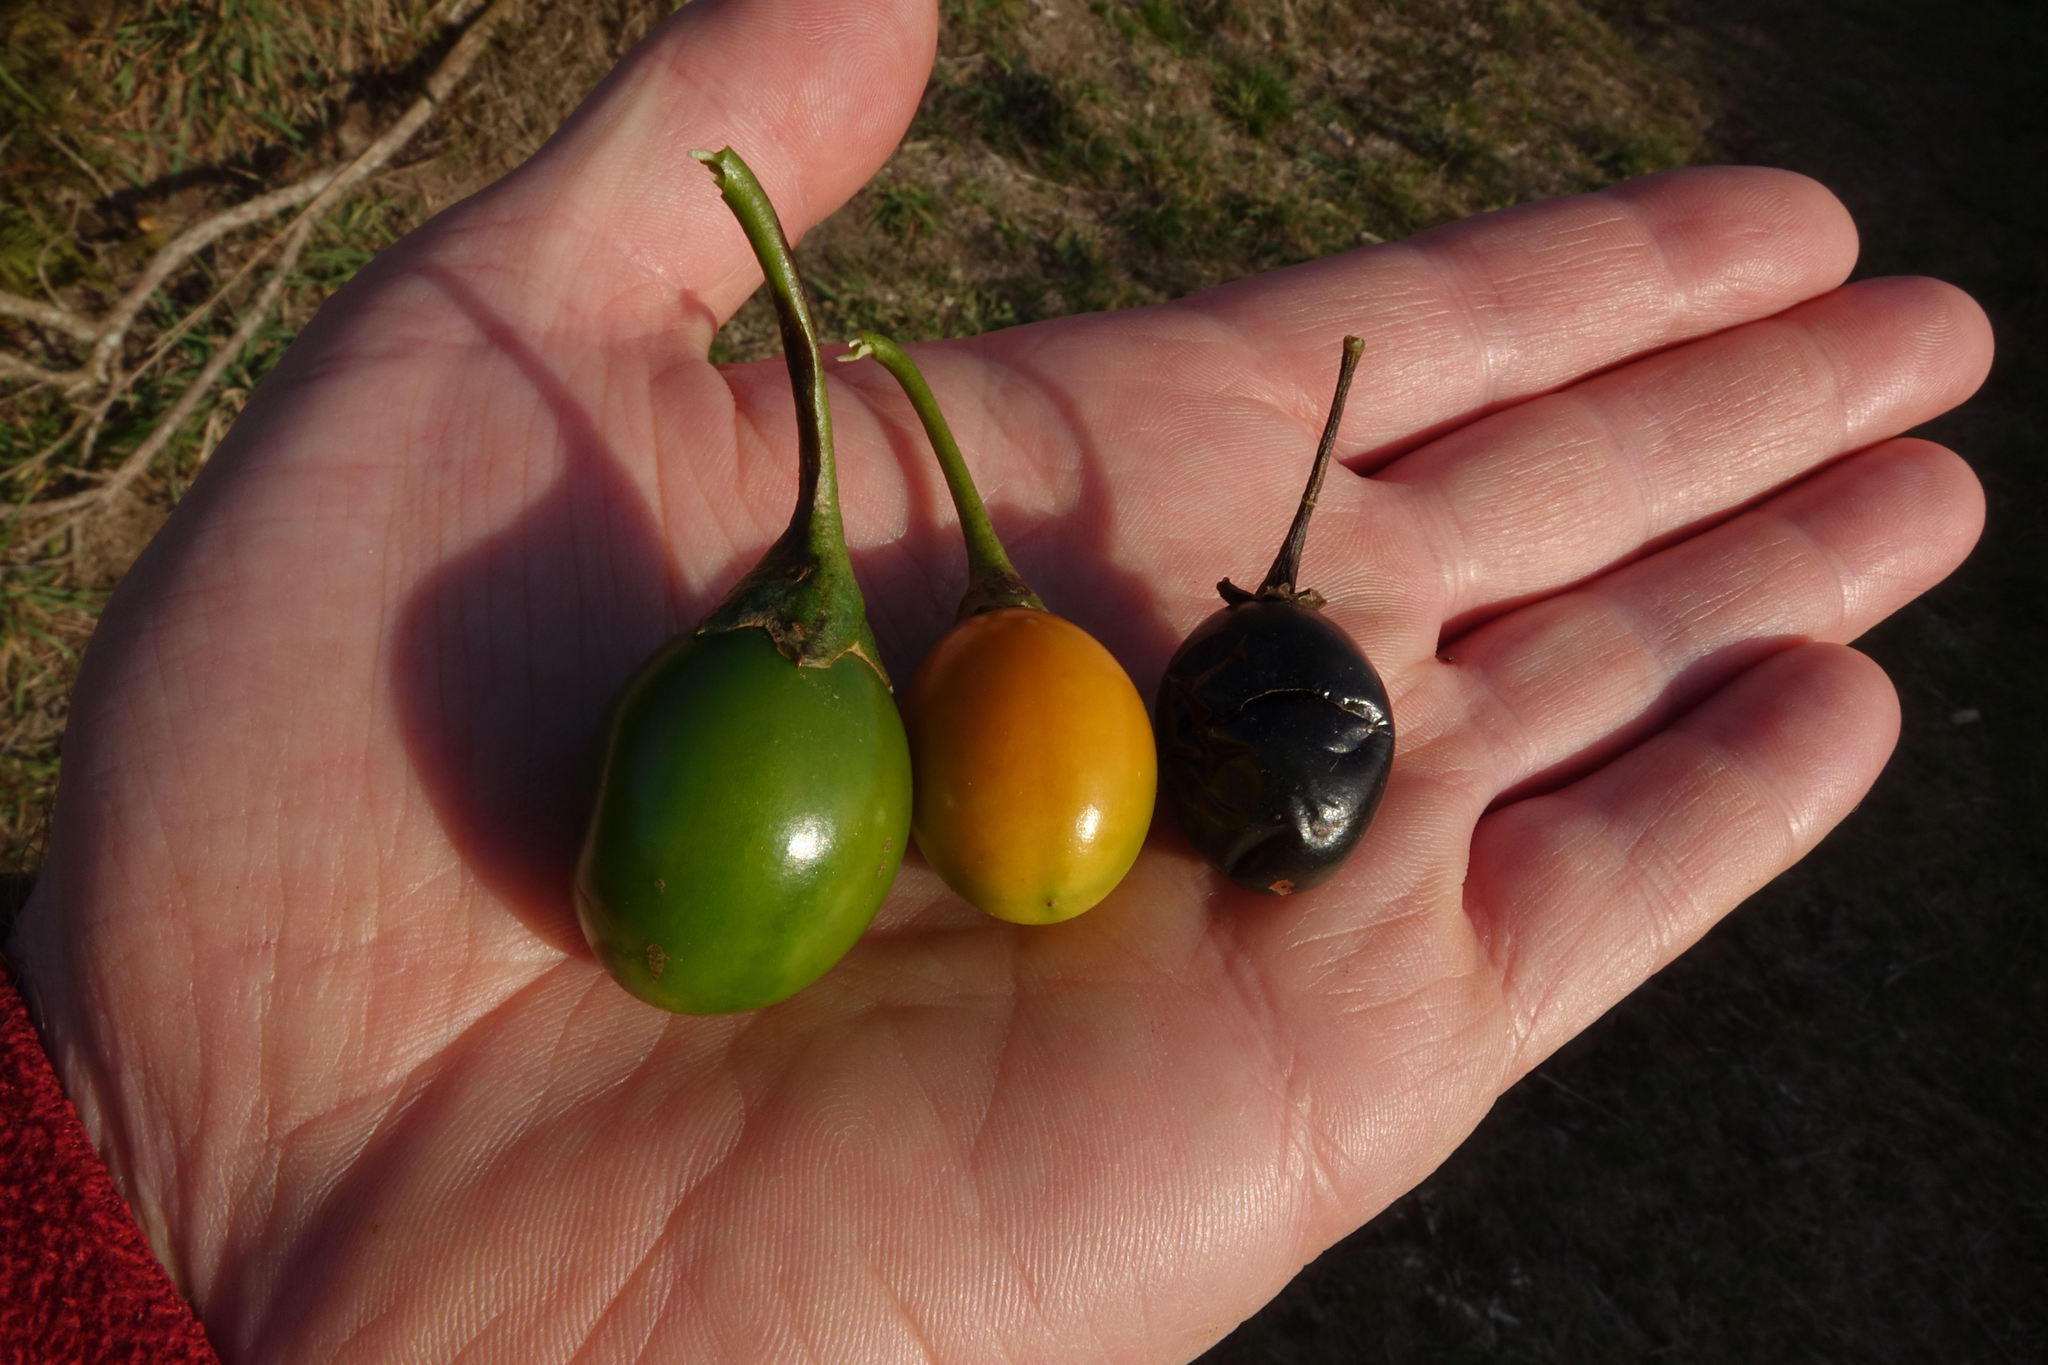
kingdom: Plantae
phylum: Tracheophyta
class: Magnoliopsida
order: Solanales
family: Solanaceae
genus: Solanum
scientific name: Solanum laciniatum
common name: Kangaroo-apple
